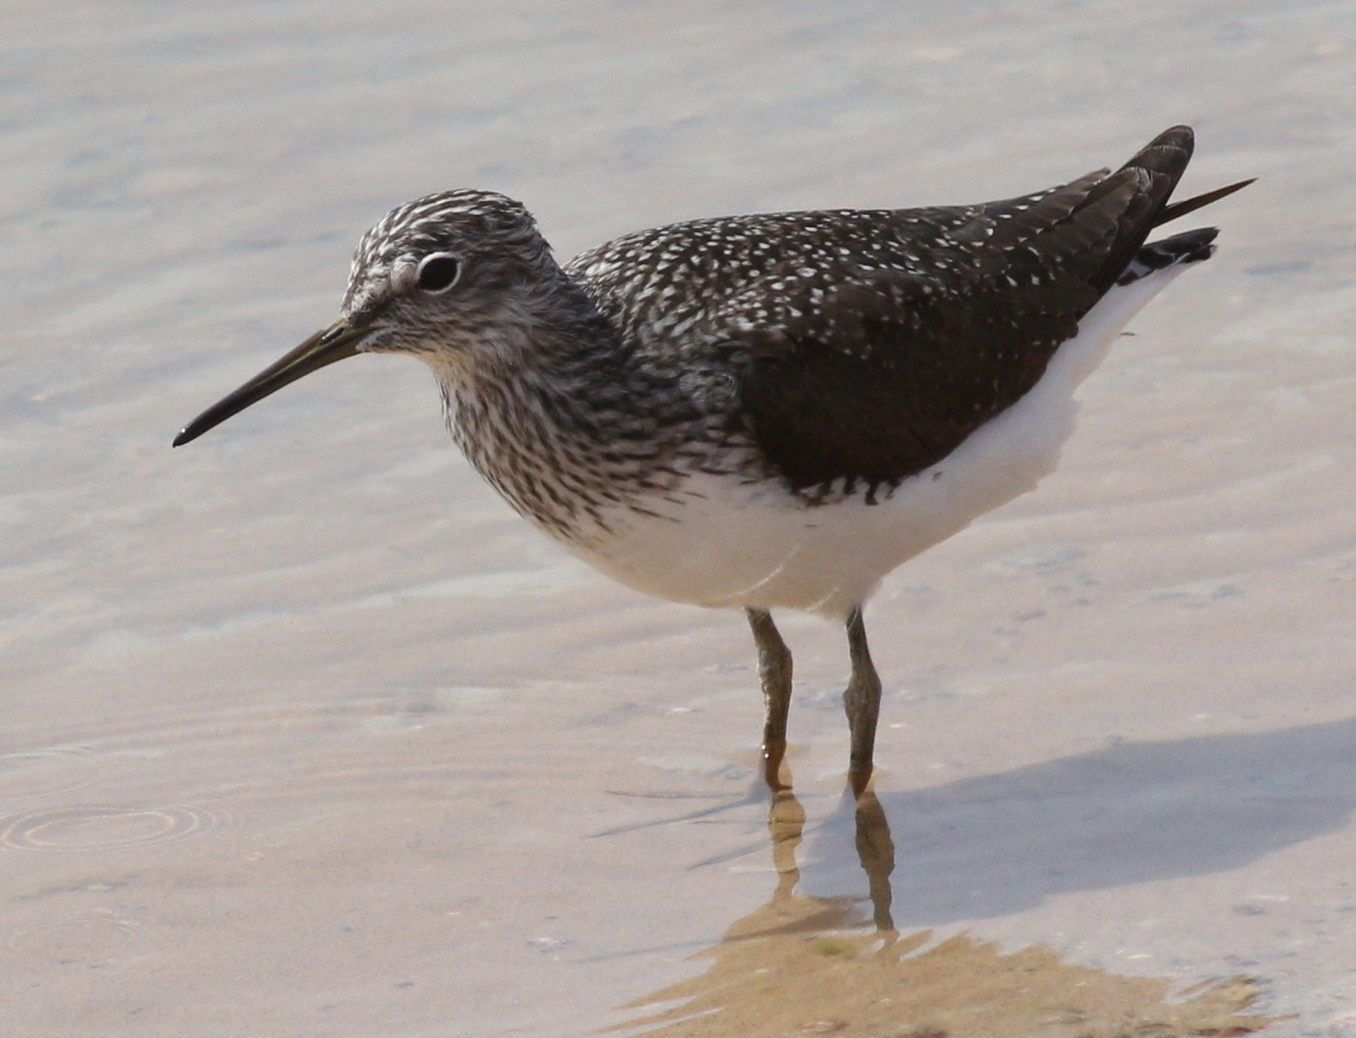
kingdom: Animalia
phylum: Chordata
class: Aves
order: Charadriiformes
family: Scolopacidae
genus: Tringa
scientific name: Tringa ochropus
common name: Green sandpiper
